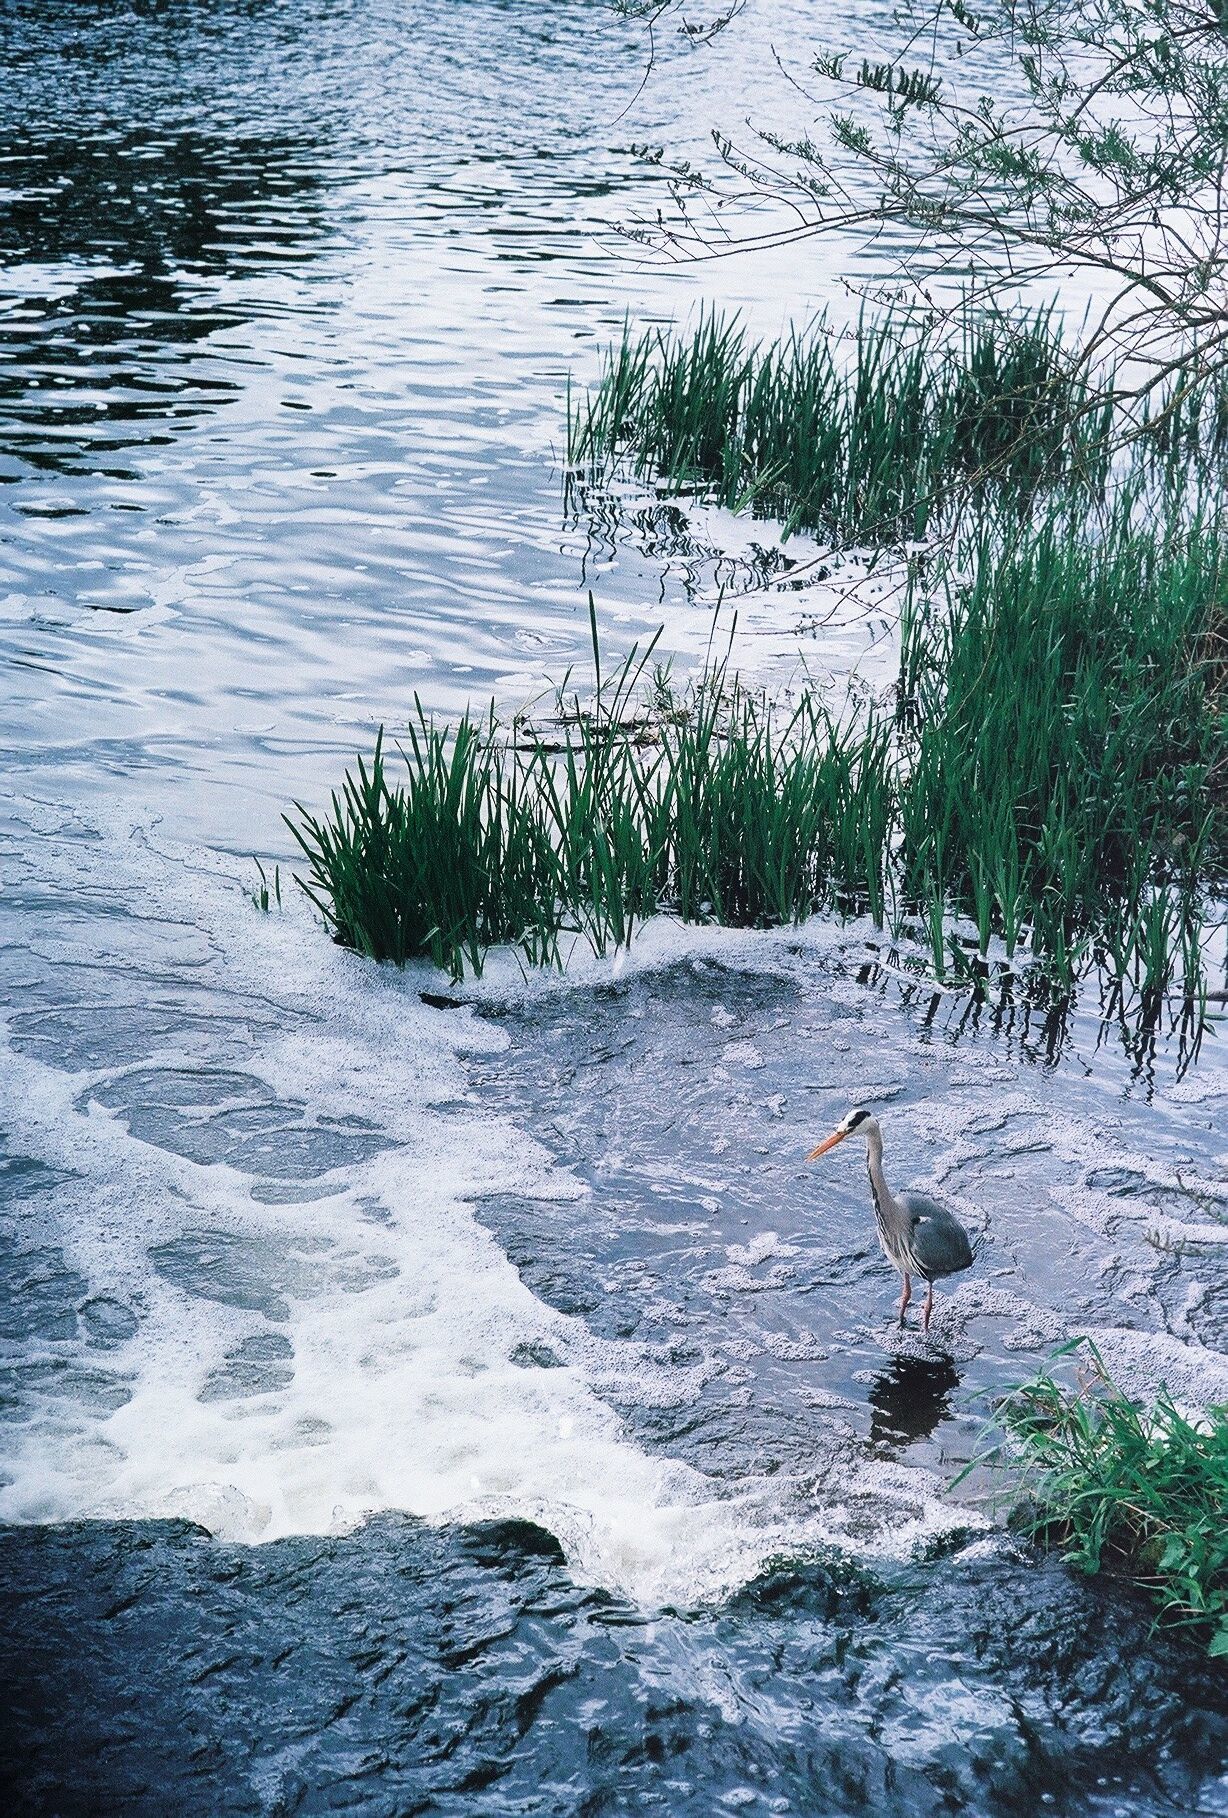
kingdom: Animalia
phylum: Chordata
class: Aves
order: Pelecaniformes
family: Ardeidae
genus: Ardea
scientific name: Ardea cinerea
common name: Grey heron
